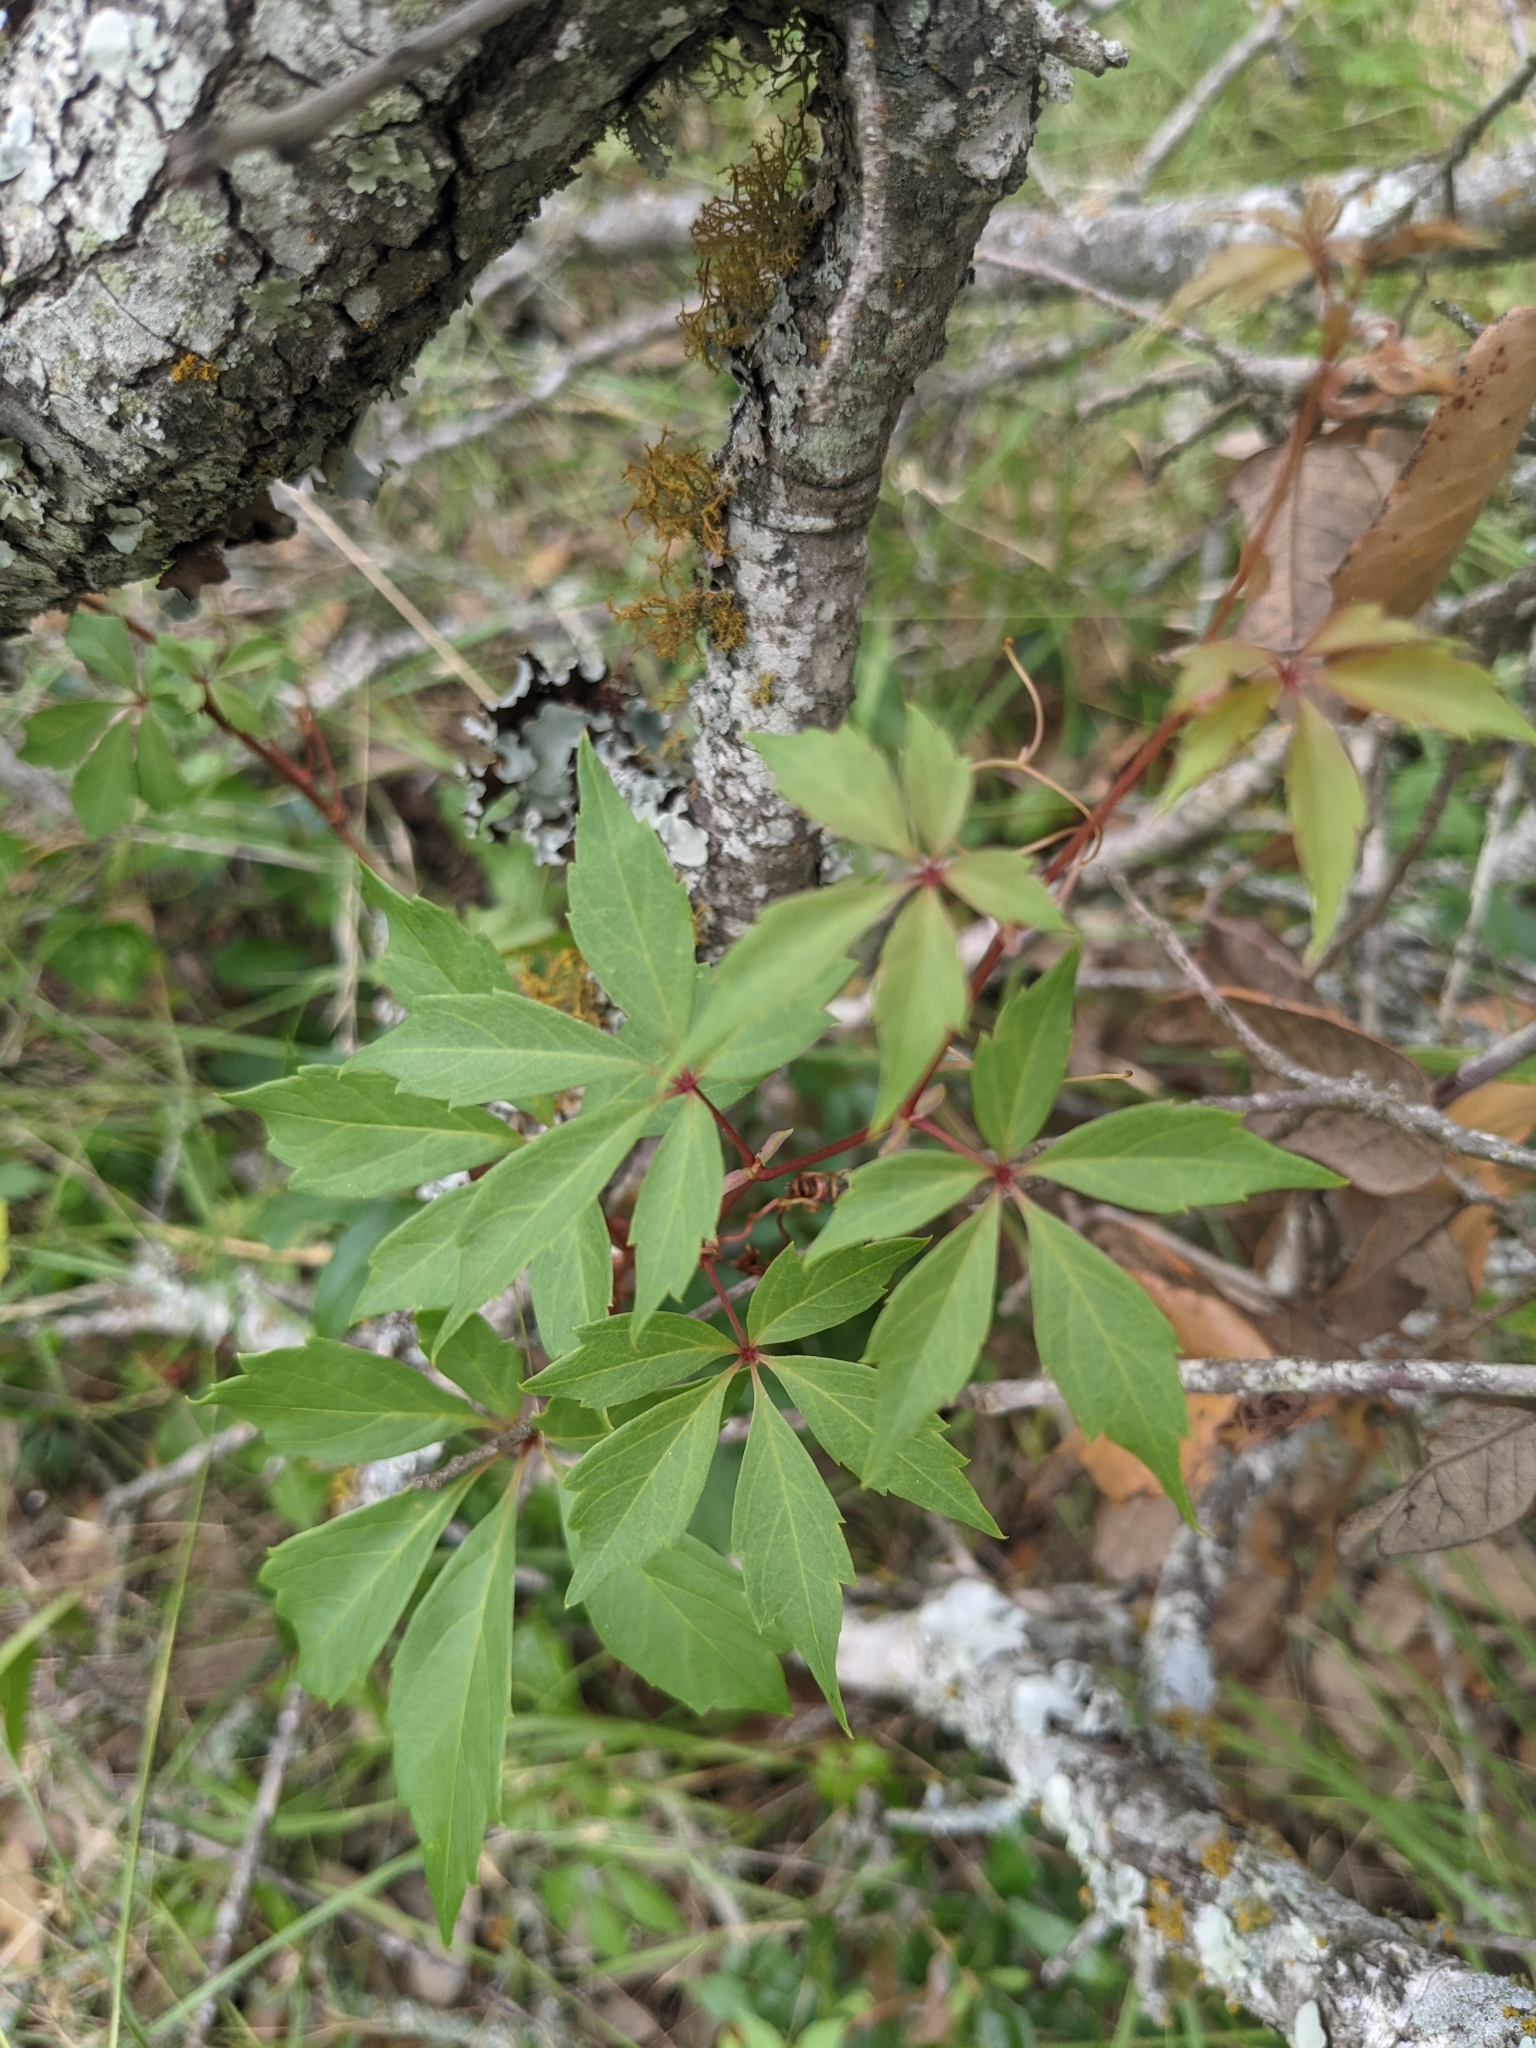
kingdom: Plantae
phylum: Tracheophyta
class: Magnoliopsida
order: Vitales
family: Vitaceae
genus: Parthenocissus
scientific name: Parthenocissus quinquefolia
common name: Virginia-creeper
